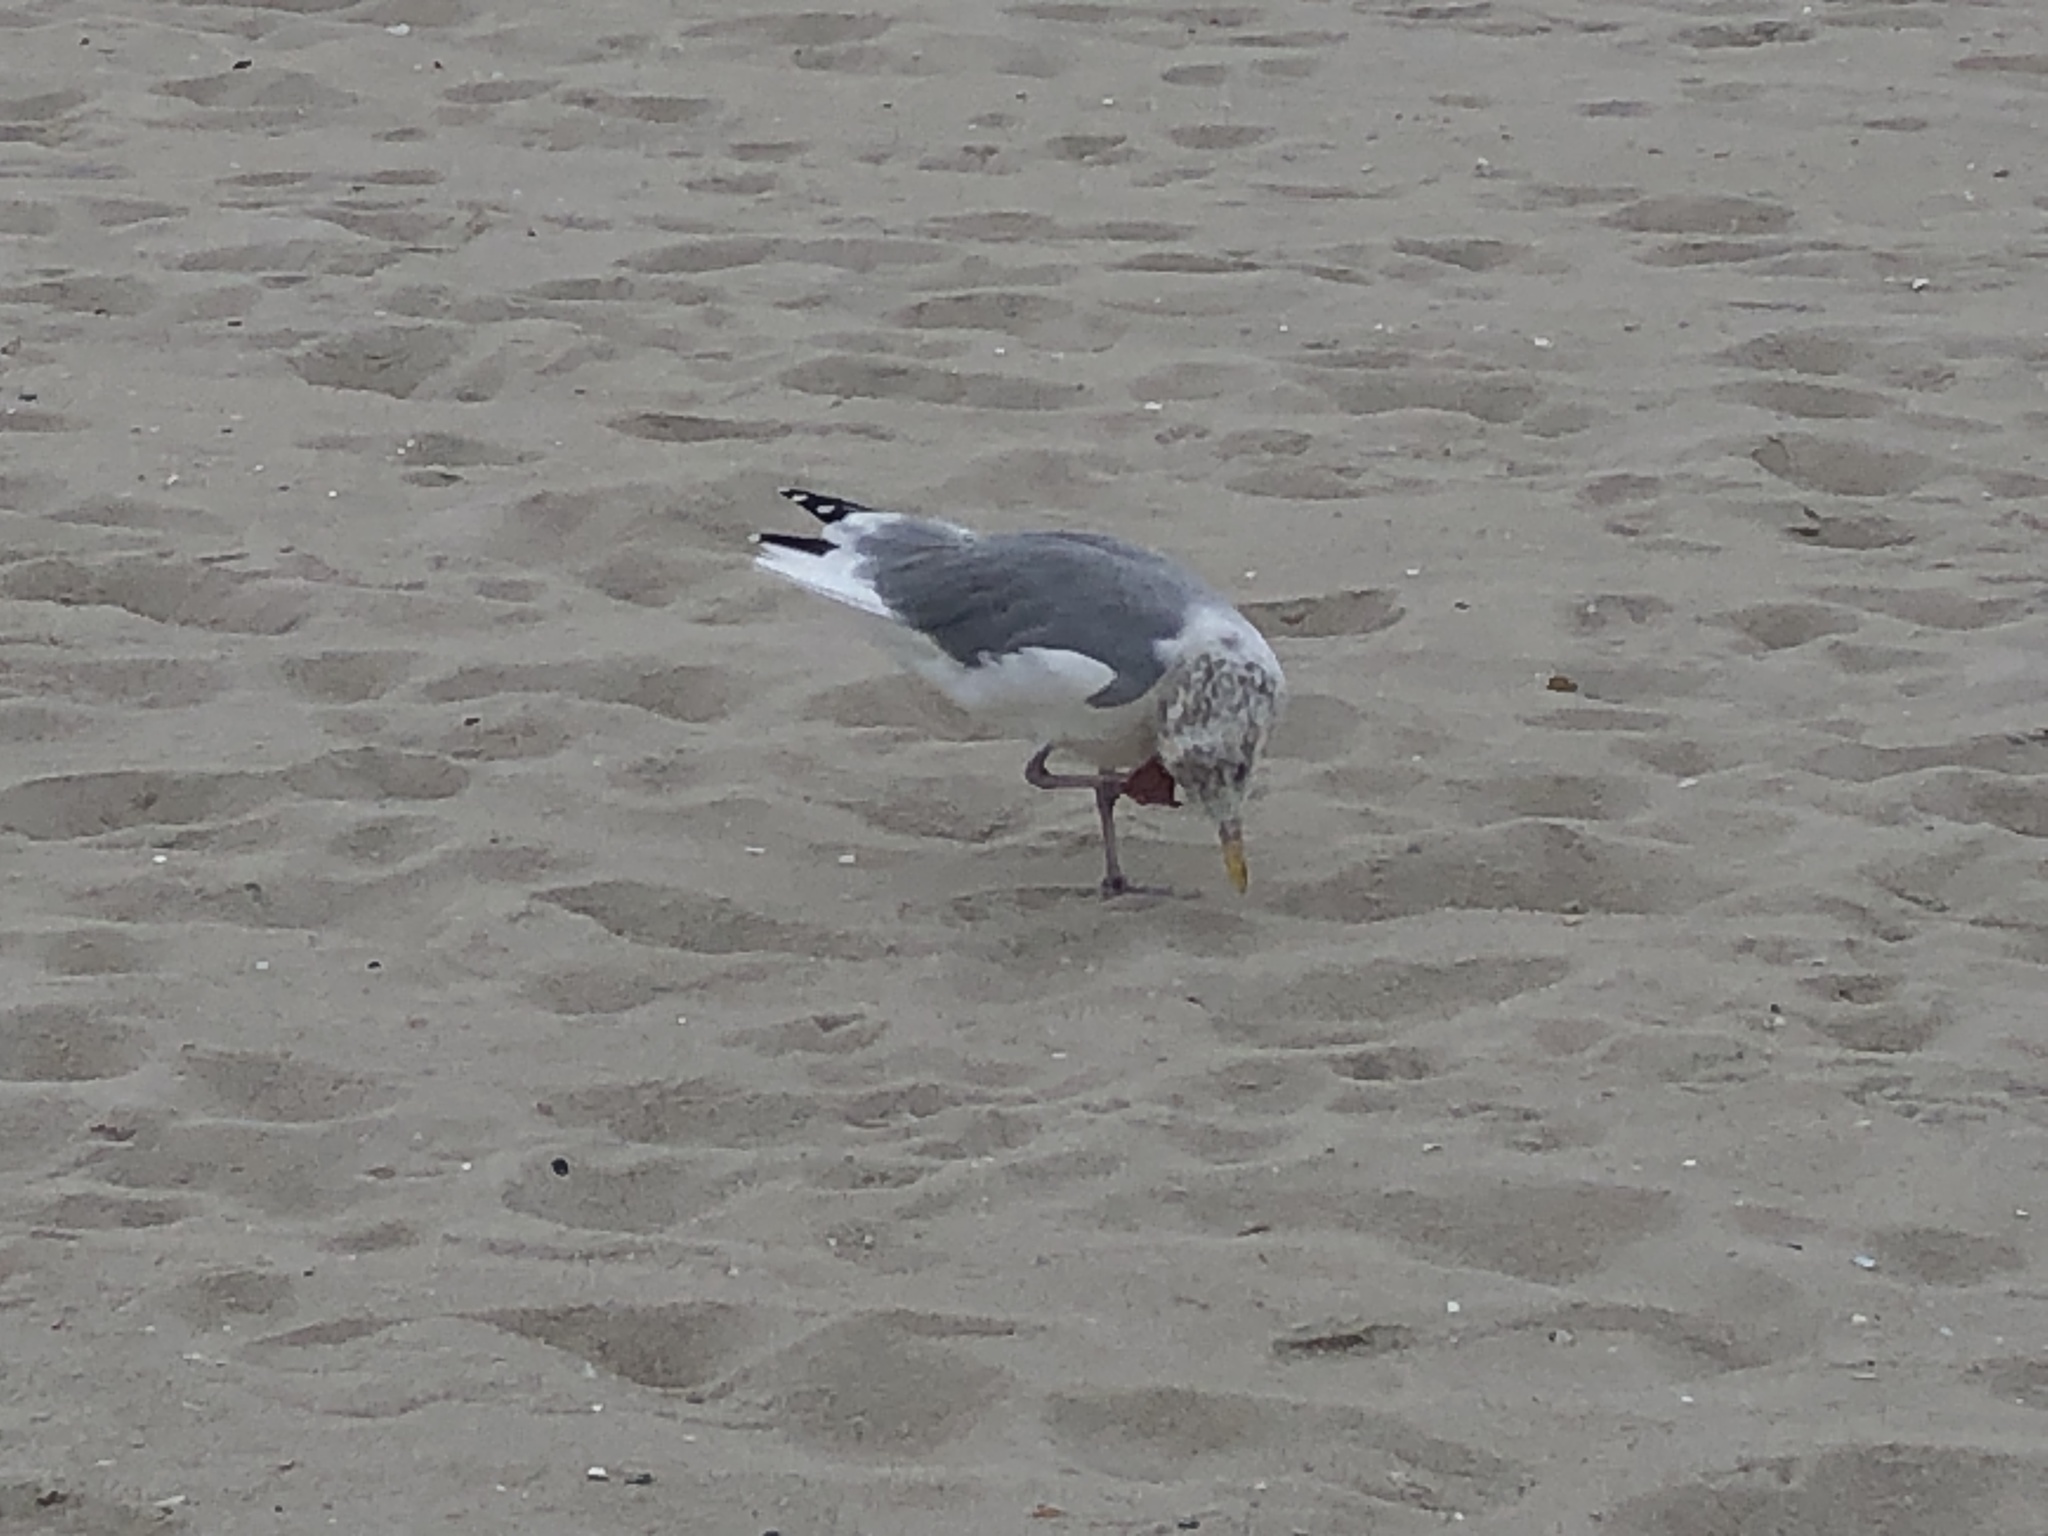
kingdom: Animalia
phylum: Chordata
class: Aves
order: Charadriiformes
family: Laridae
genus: Larus
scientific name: Larus argentatus
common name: Herring gull
